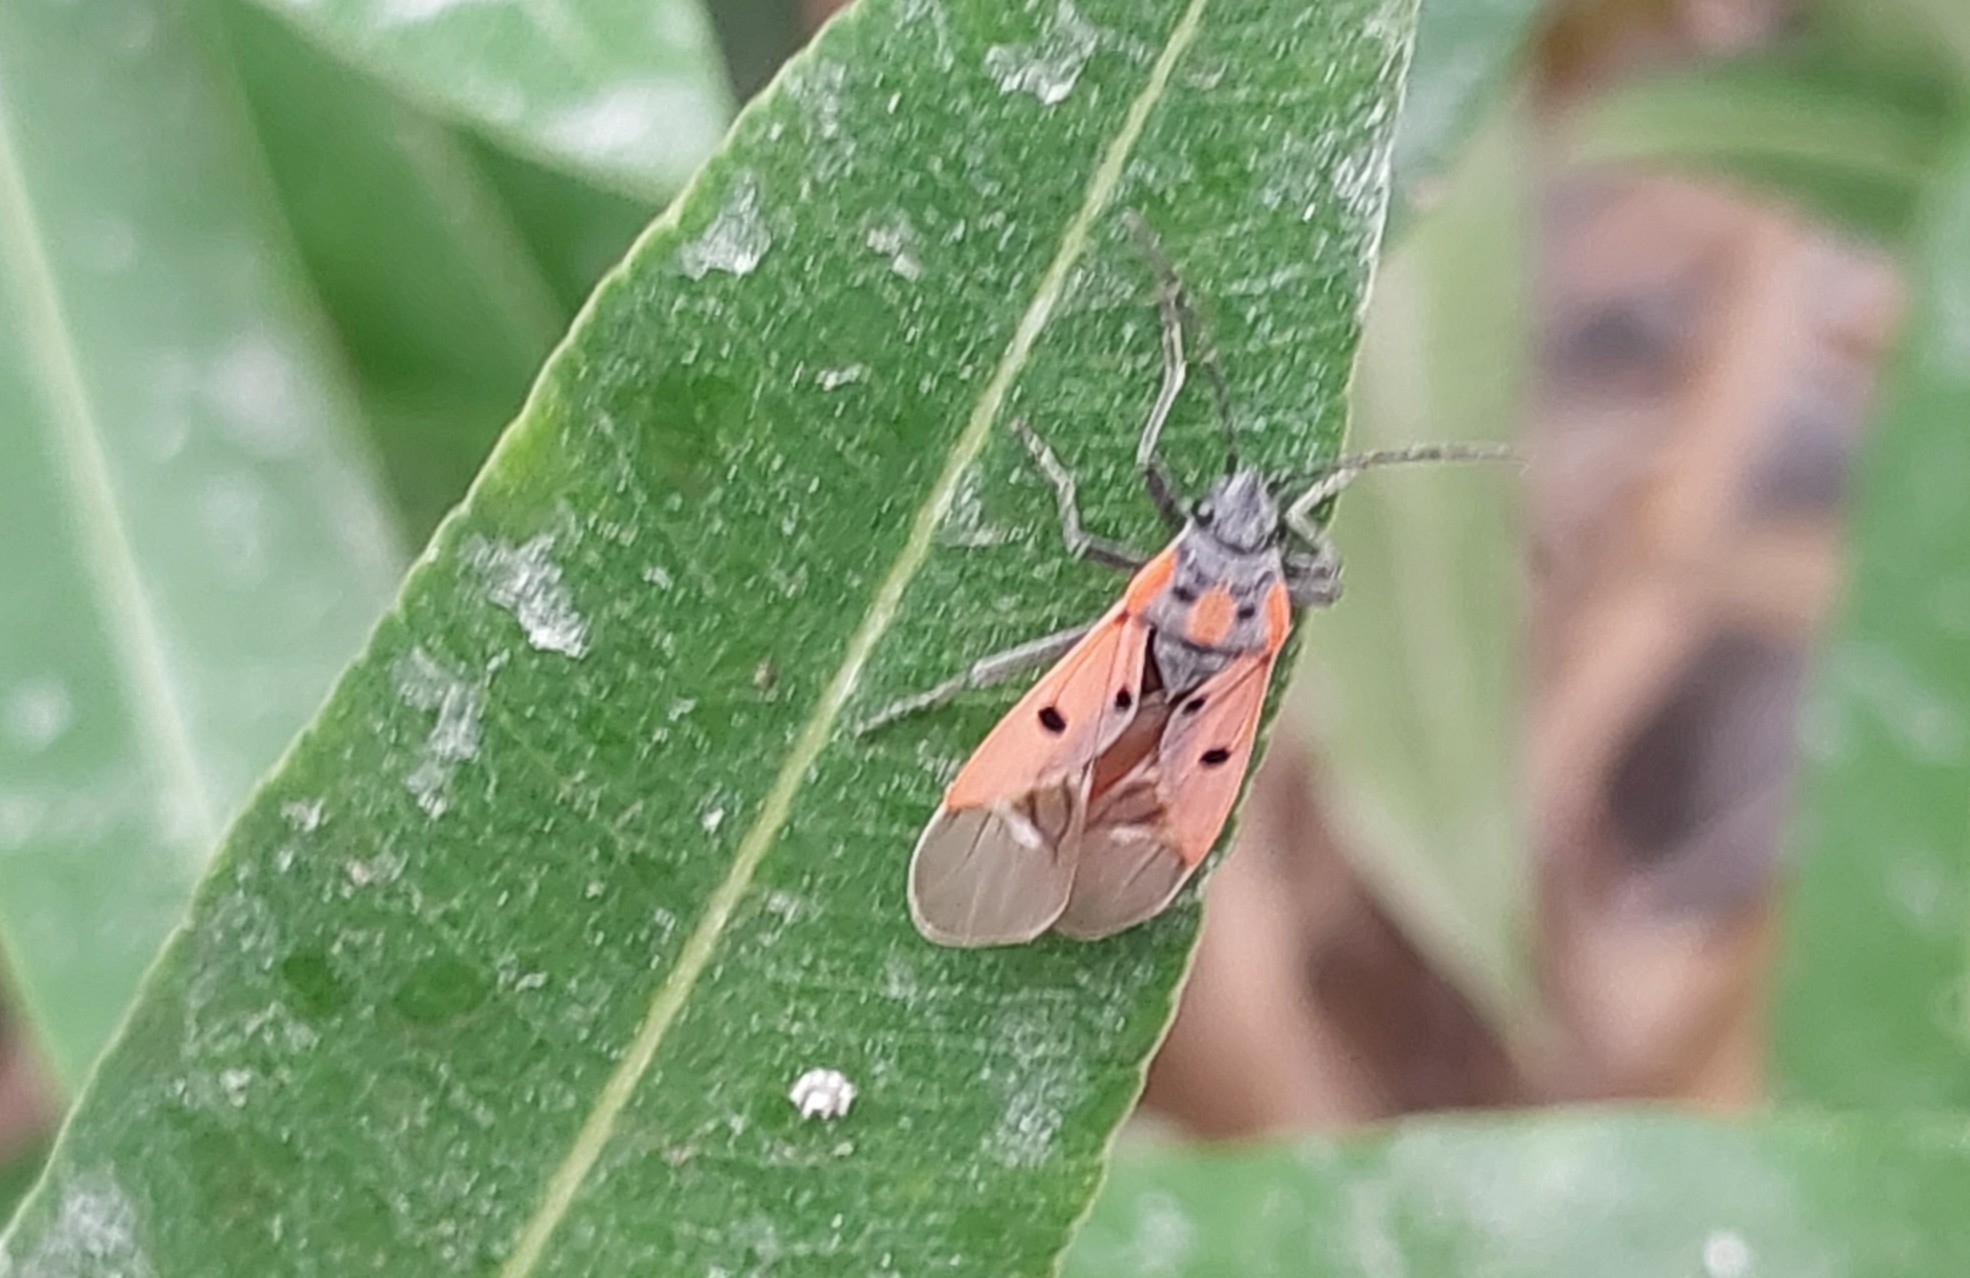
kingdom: Animalia
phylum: Arthropoda
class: Insecta
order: Hemiptera
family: Lygaeidae
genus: Lygaeus
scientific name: Lygaeus creticus
